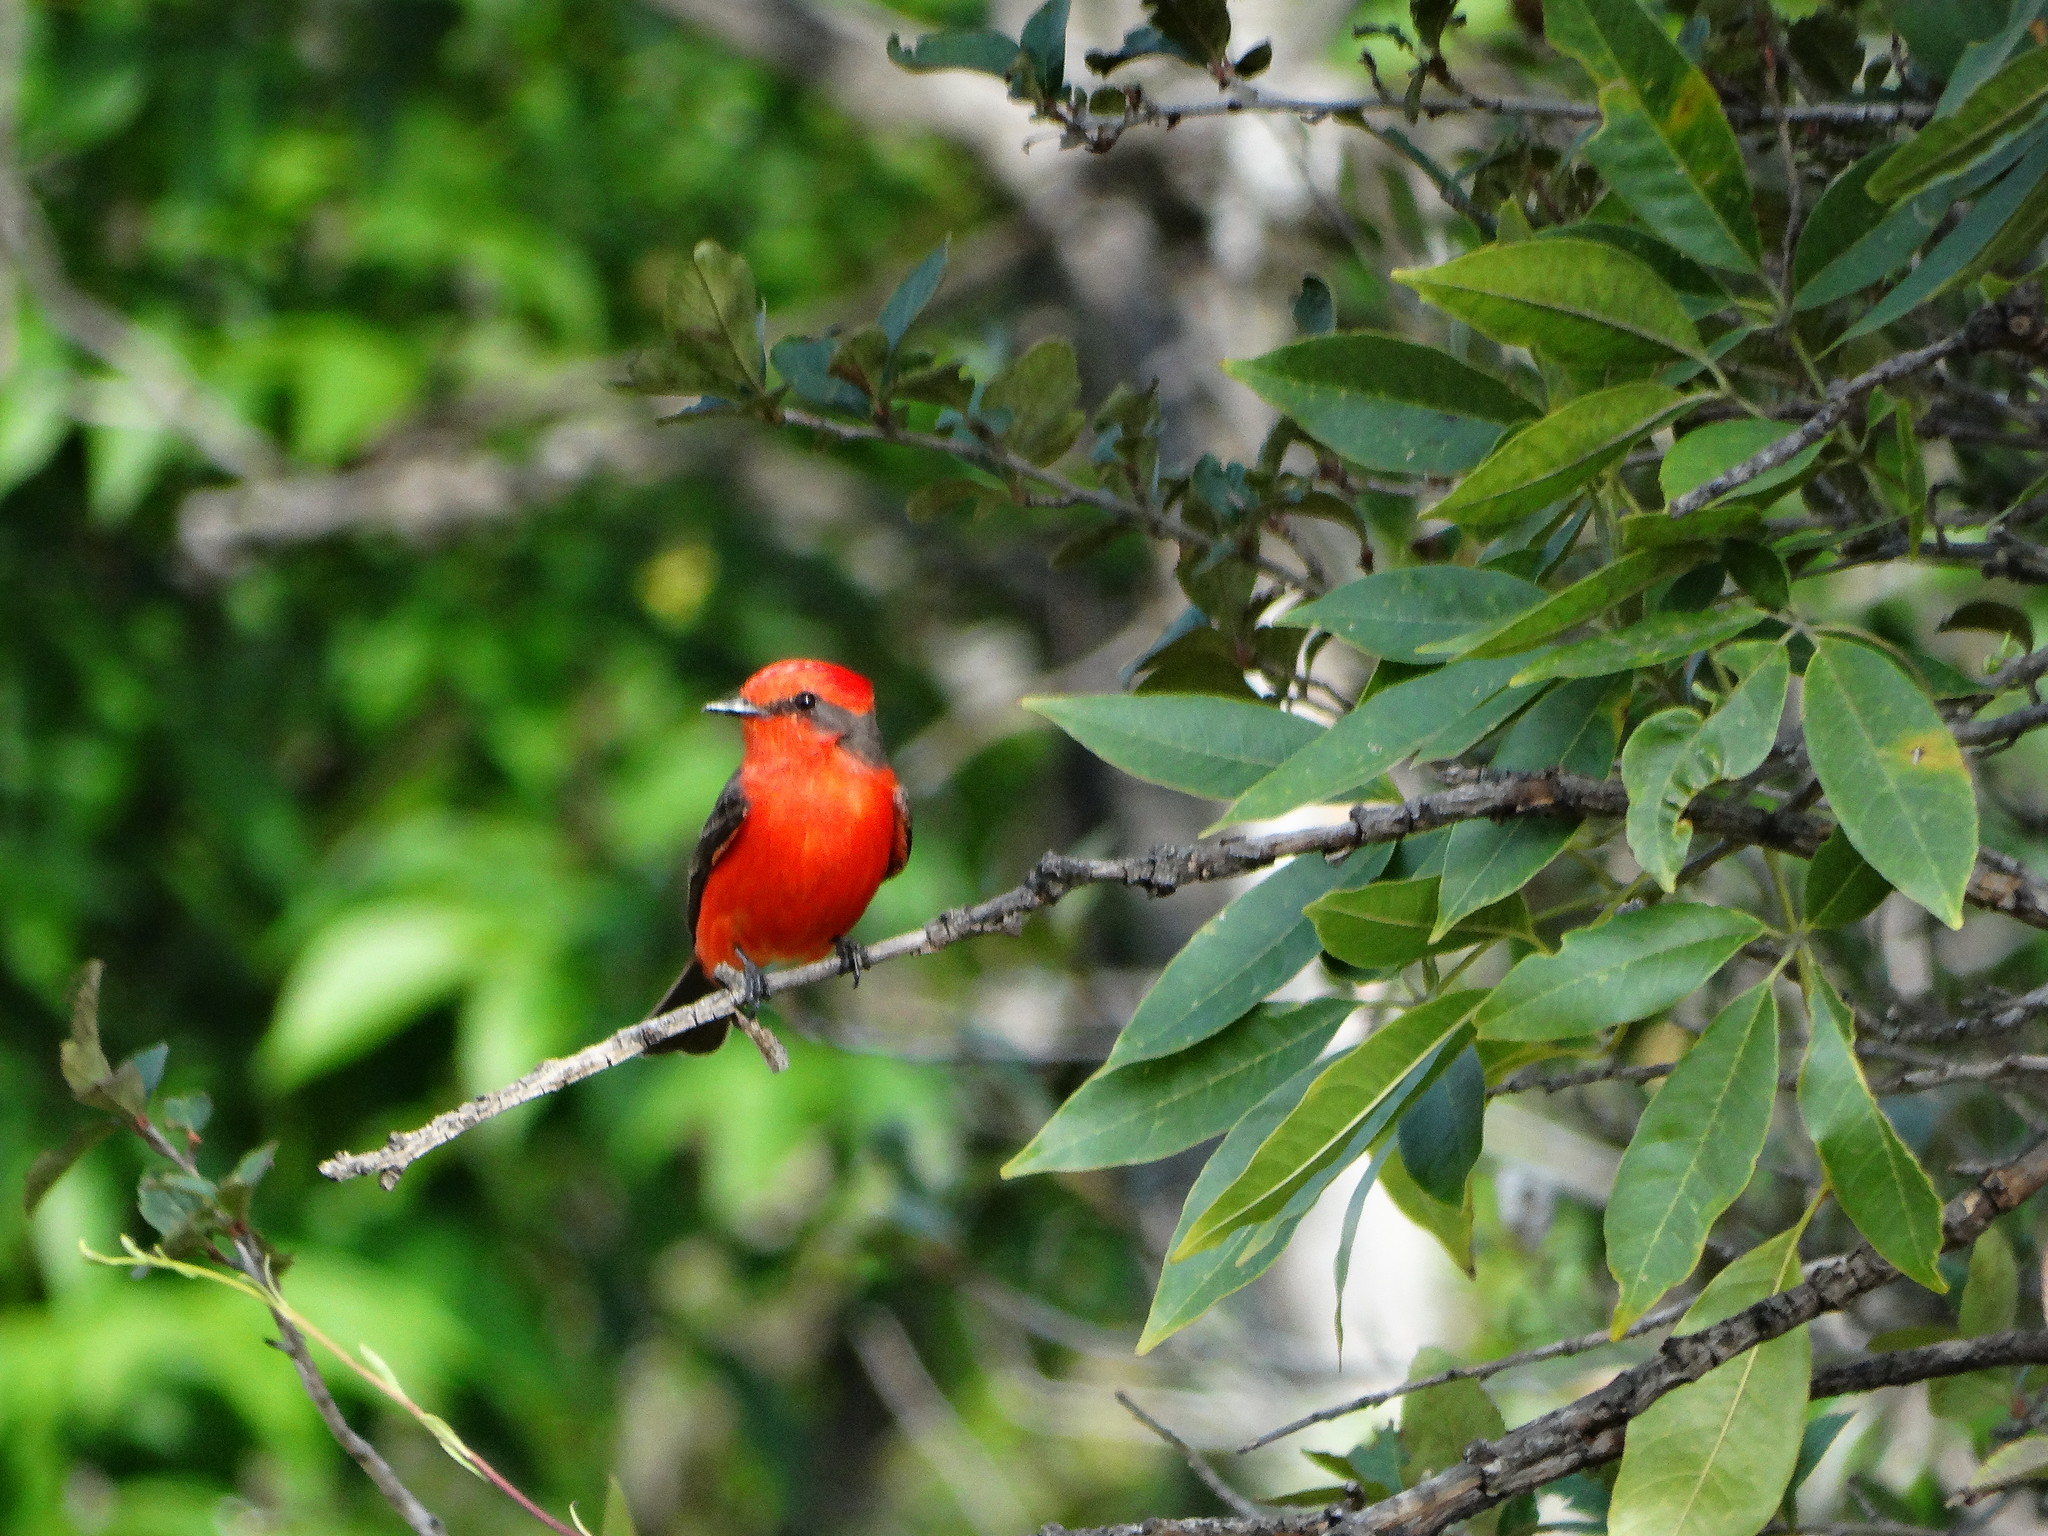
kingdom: Animalia
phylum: Chordata
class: Aves
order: Passeriformes
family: Tyrannidae
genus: Pyrocephalus
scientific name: Pyrocephalus rubinus
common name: Vermilion flycatcher
